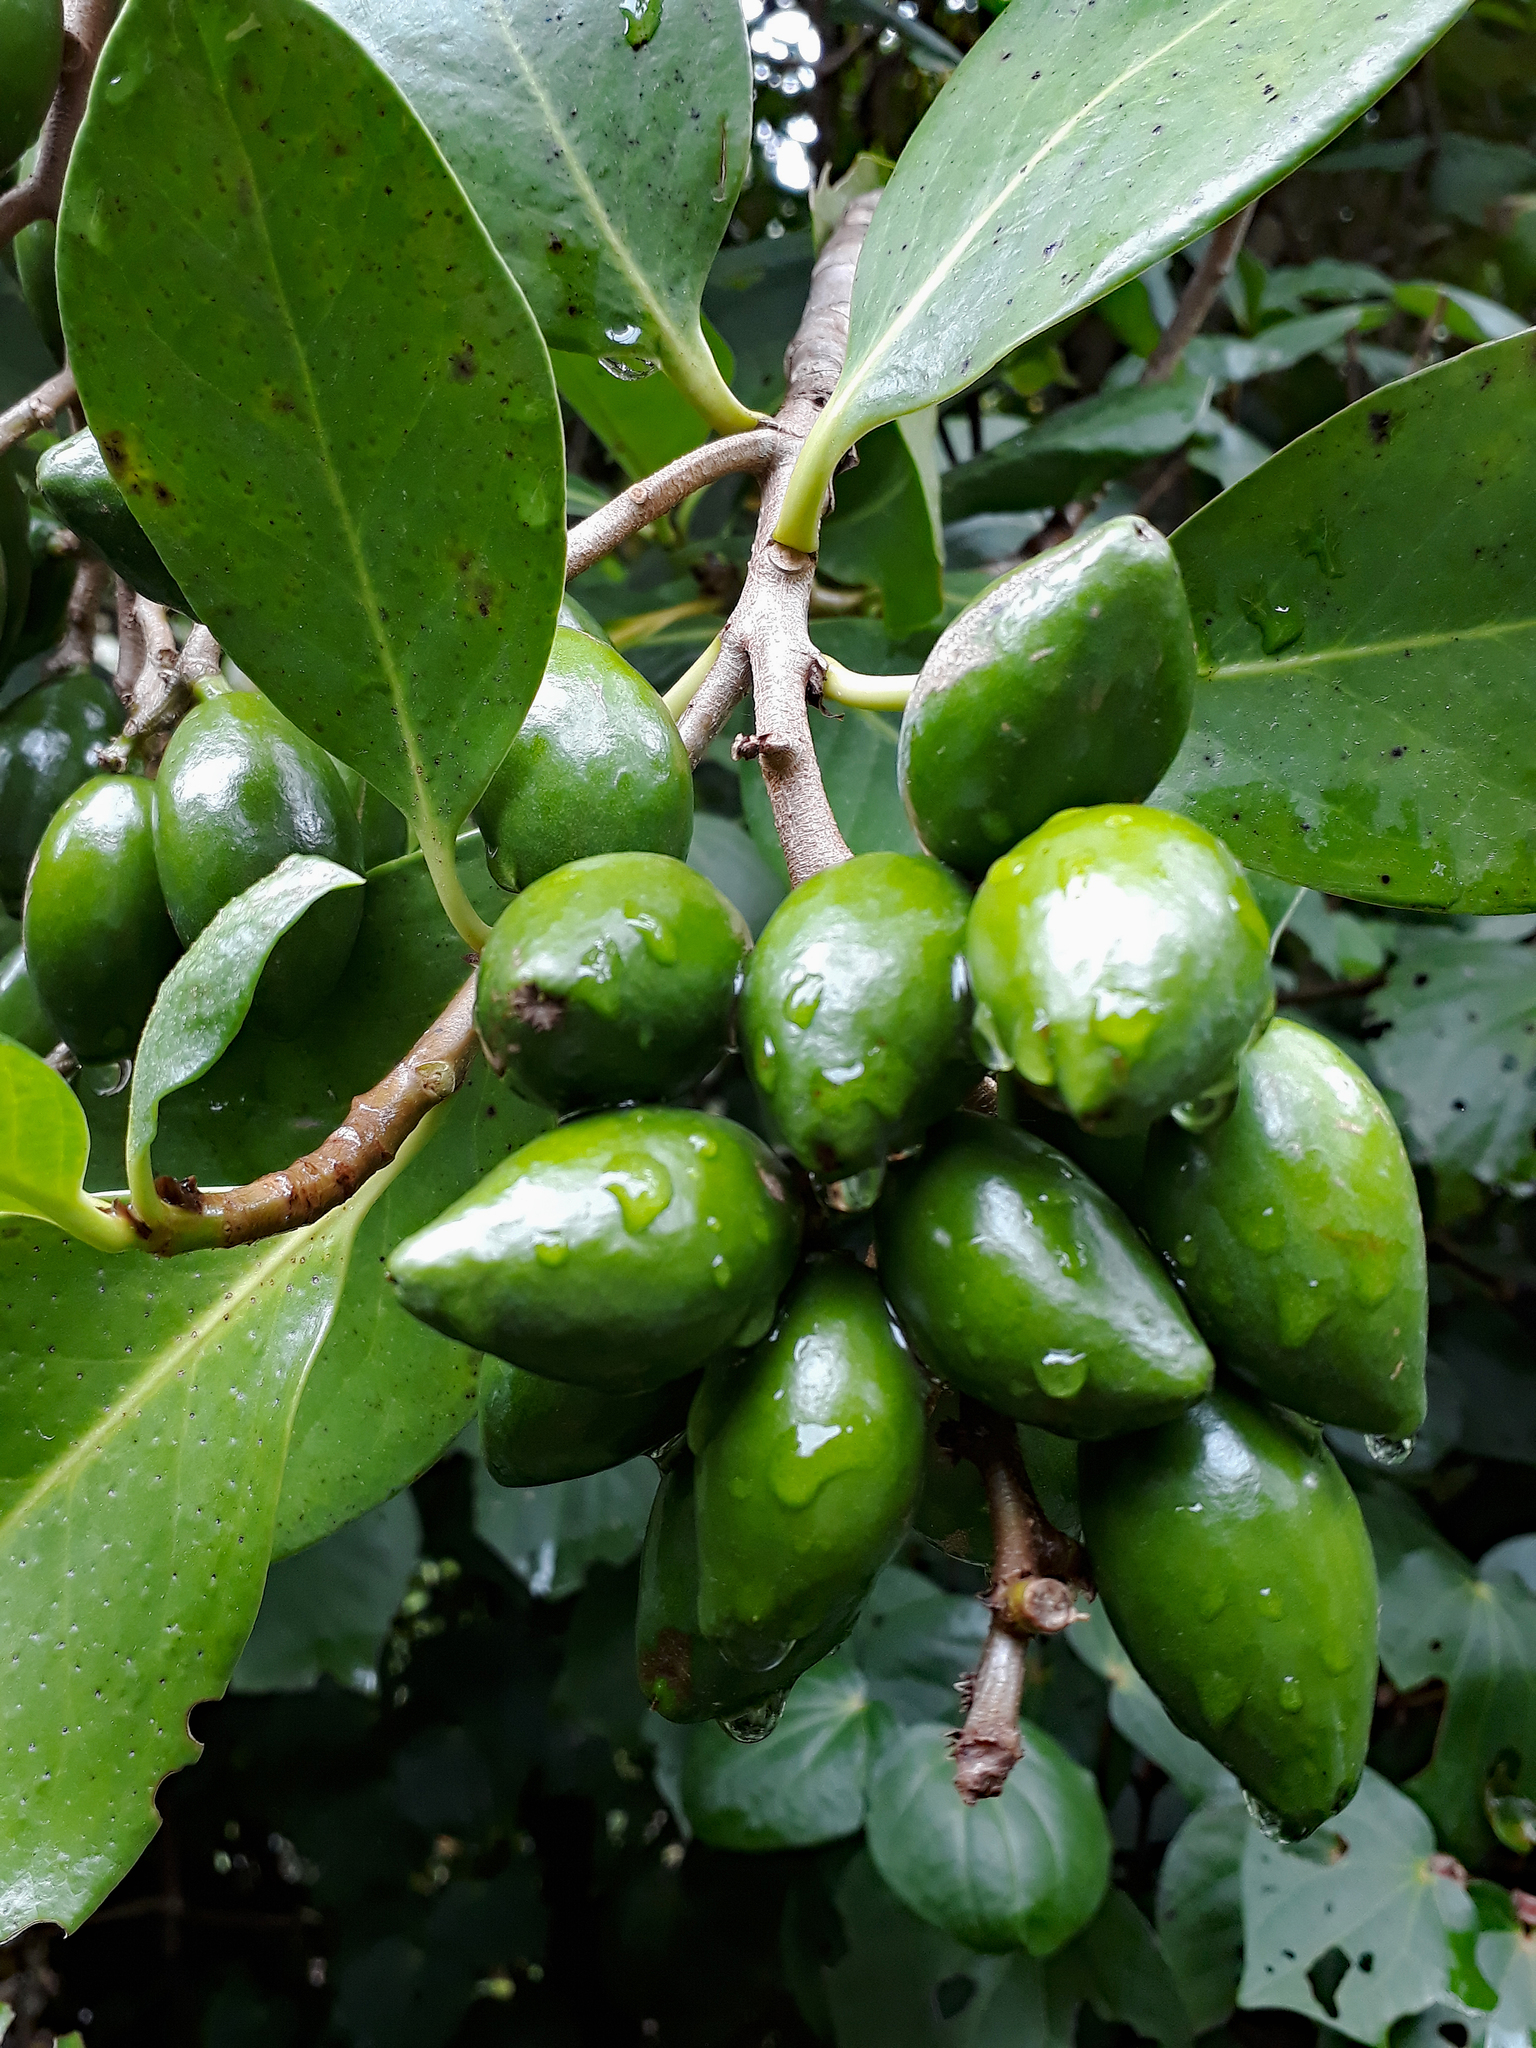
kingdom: Plantae
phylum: Tracheophyta
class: Magnoliopsida
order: Cucurbitales
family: Corynocarpaceae
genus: Corynocarpus
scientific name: Corynocarpus laevigatus
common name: New zealand laurel
